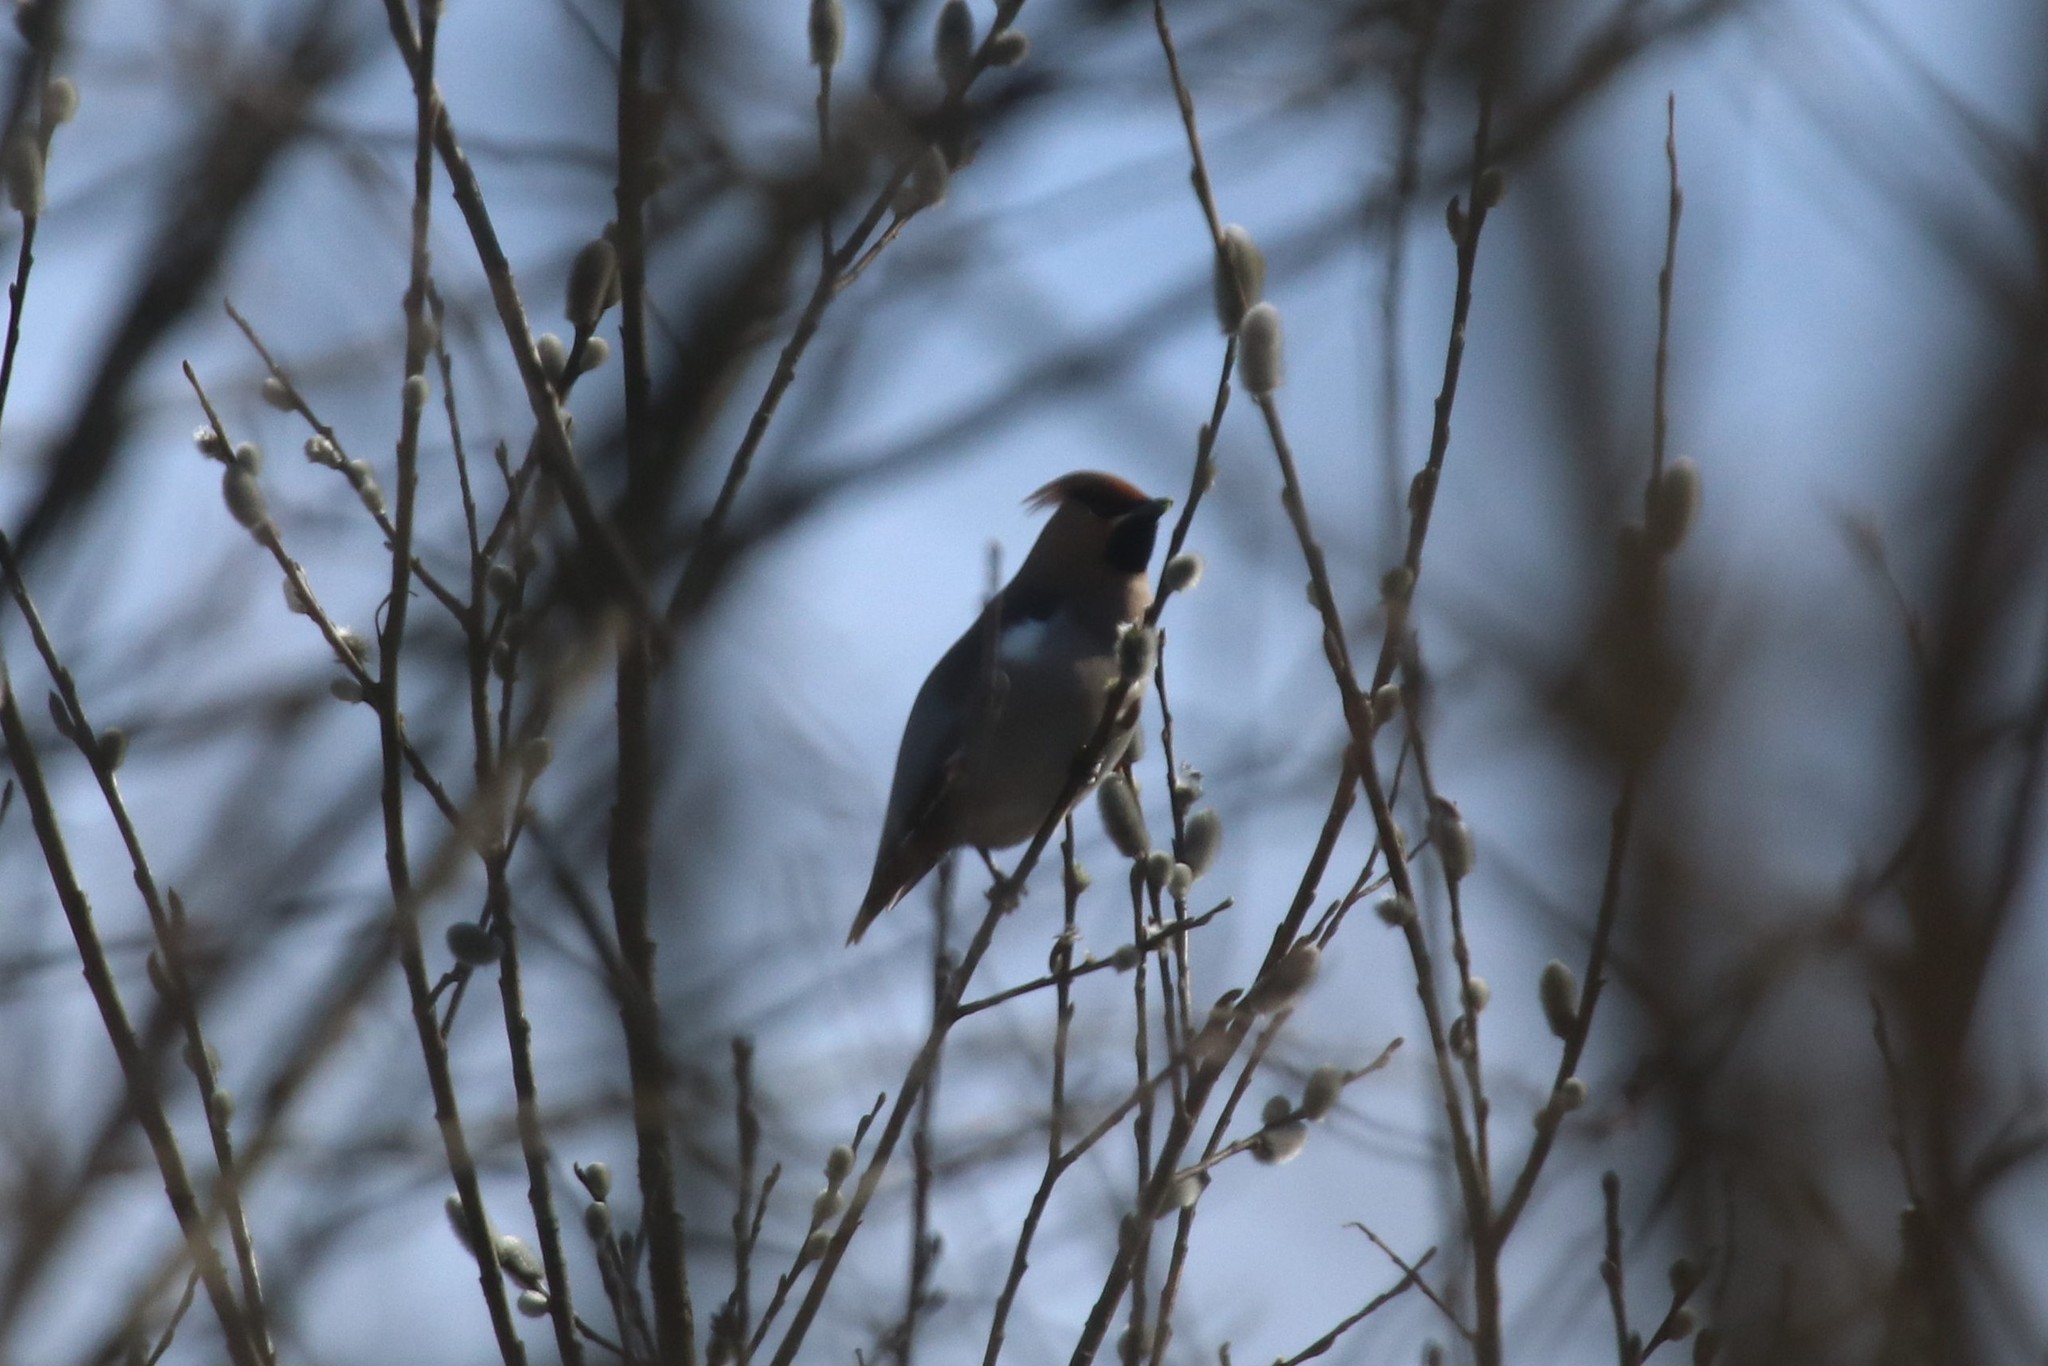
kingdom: Animalia
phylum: Chordata
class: Aves
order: Passeriformes
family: Bombycillidae
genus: Bombycilla
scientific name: Bombycilla garrulus
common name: Bohemian waxwing
